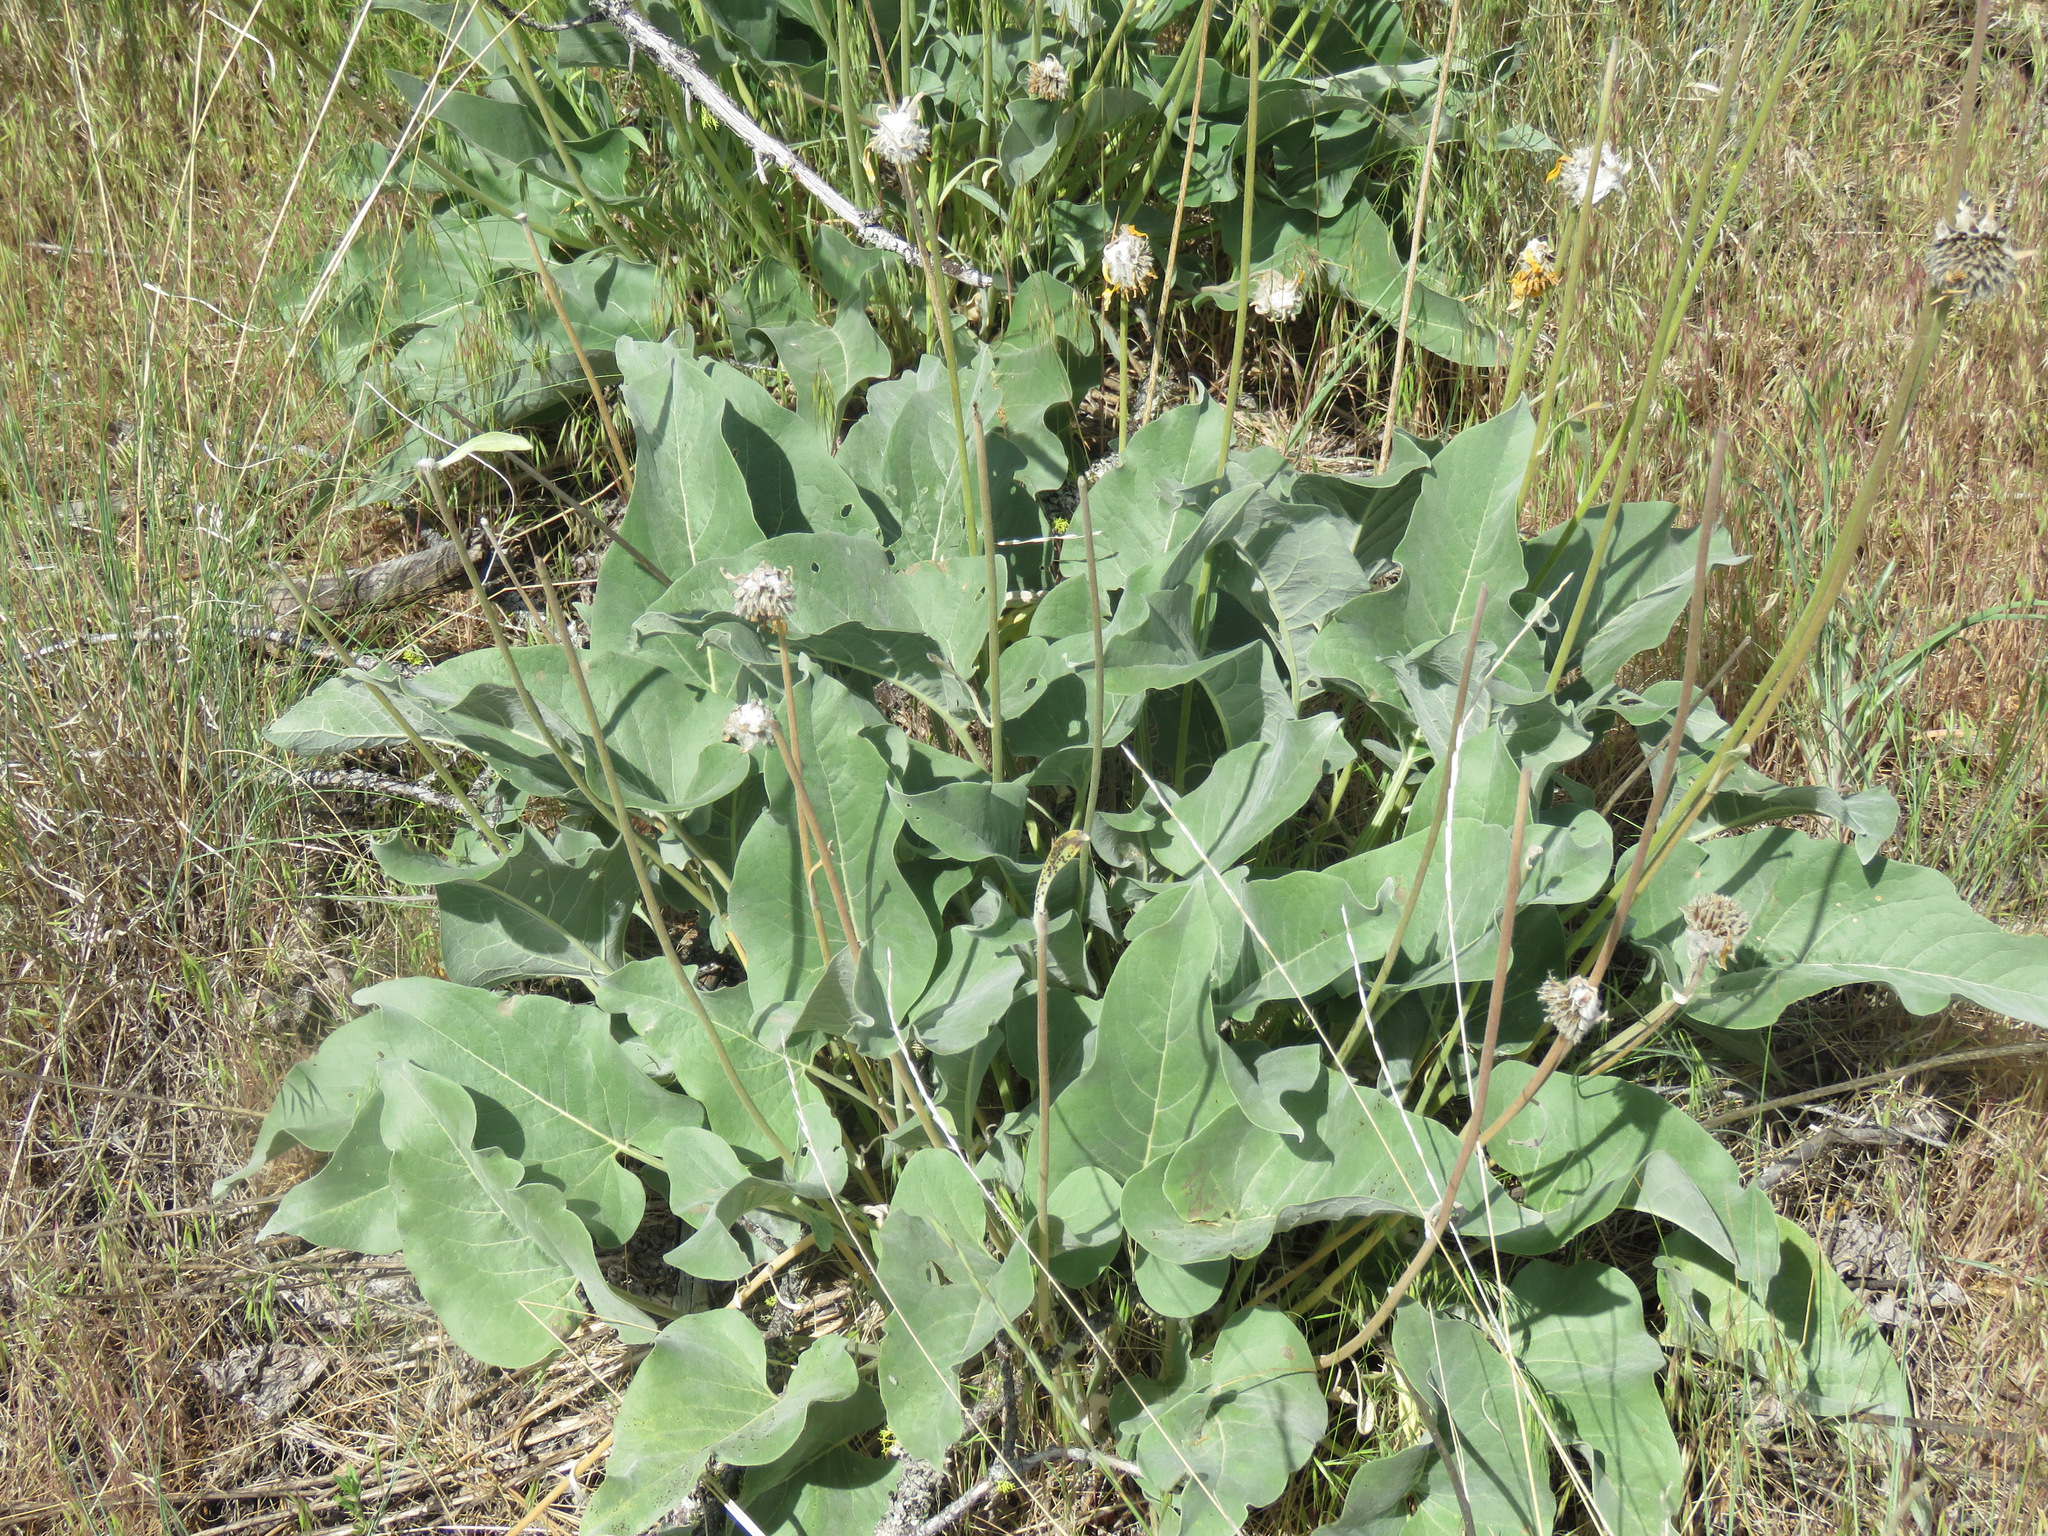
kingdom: Plantae
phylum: Tracheophyta
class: Magnoliopsida
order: Asterales
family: Asteraceae
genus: Wyethia
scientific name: Wyethia sagittata
